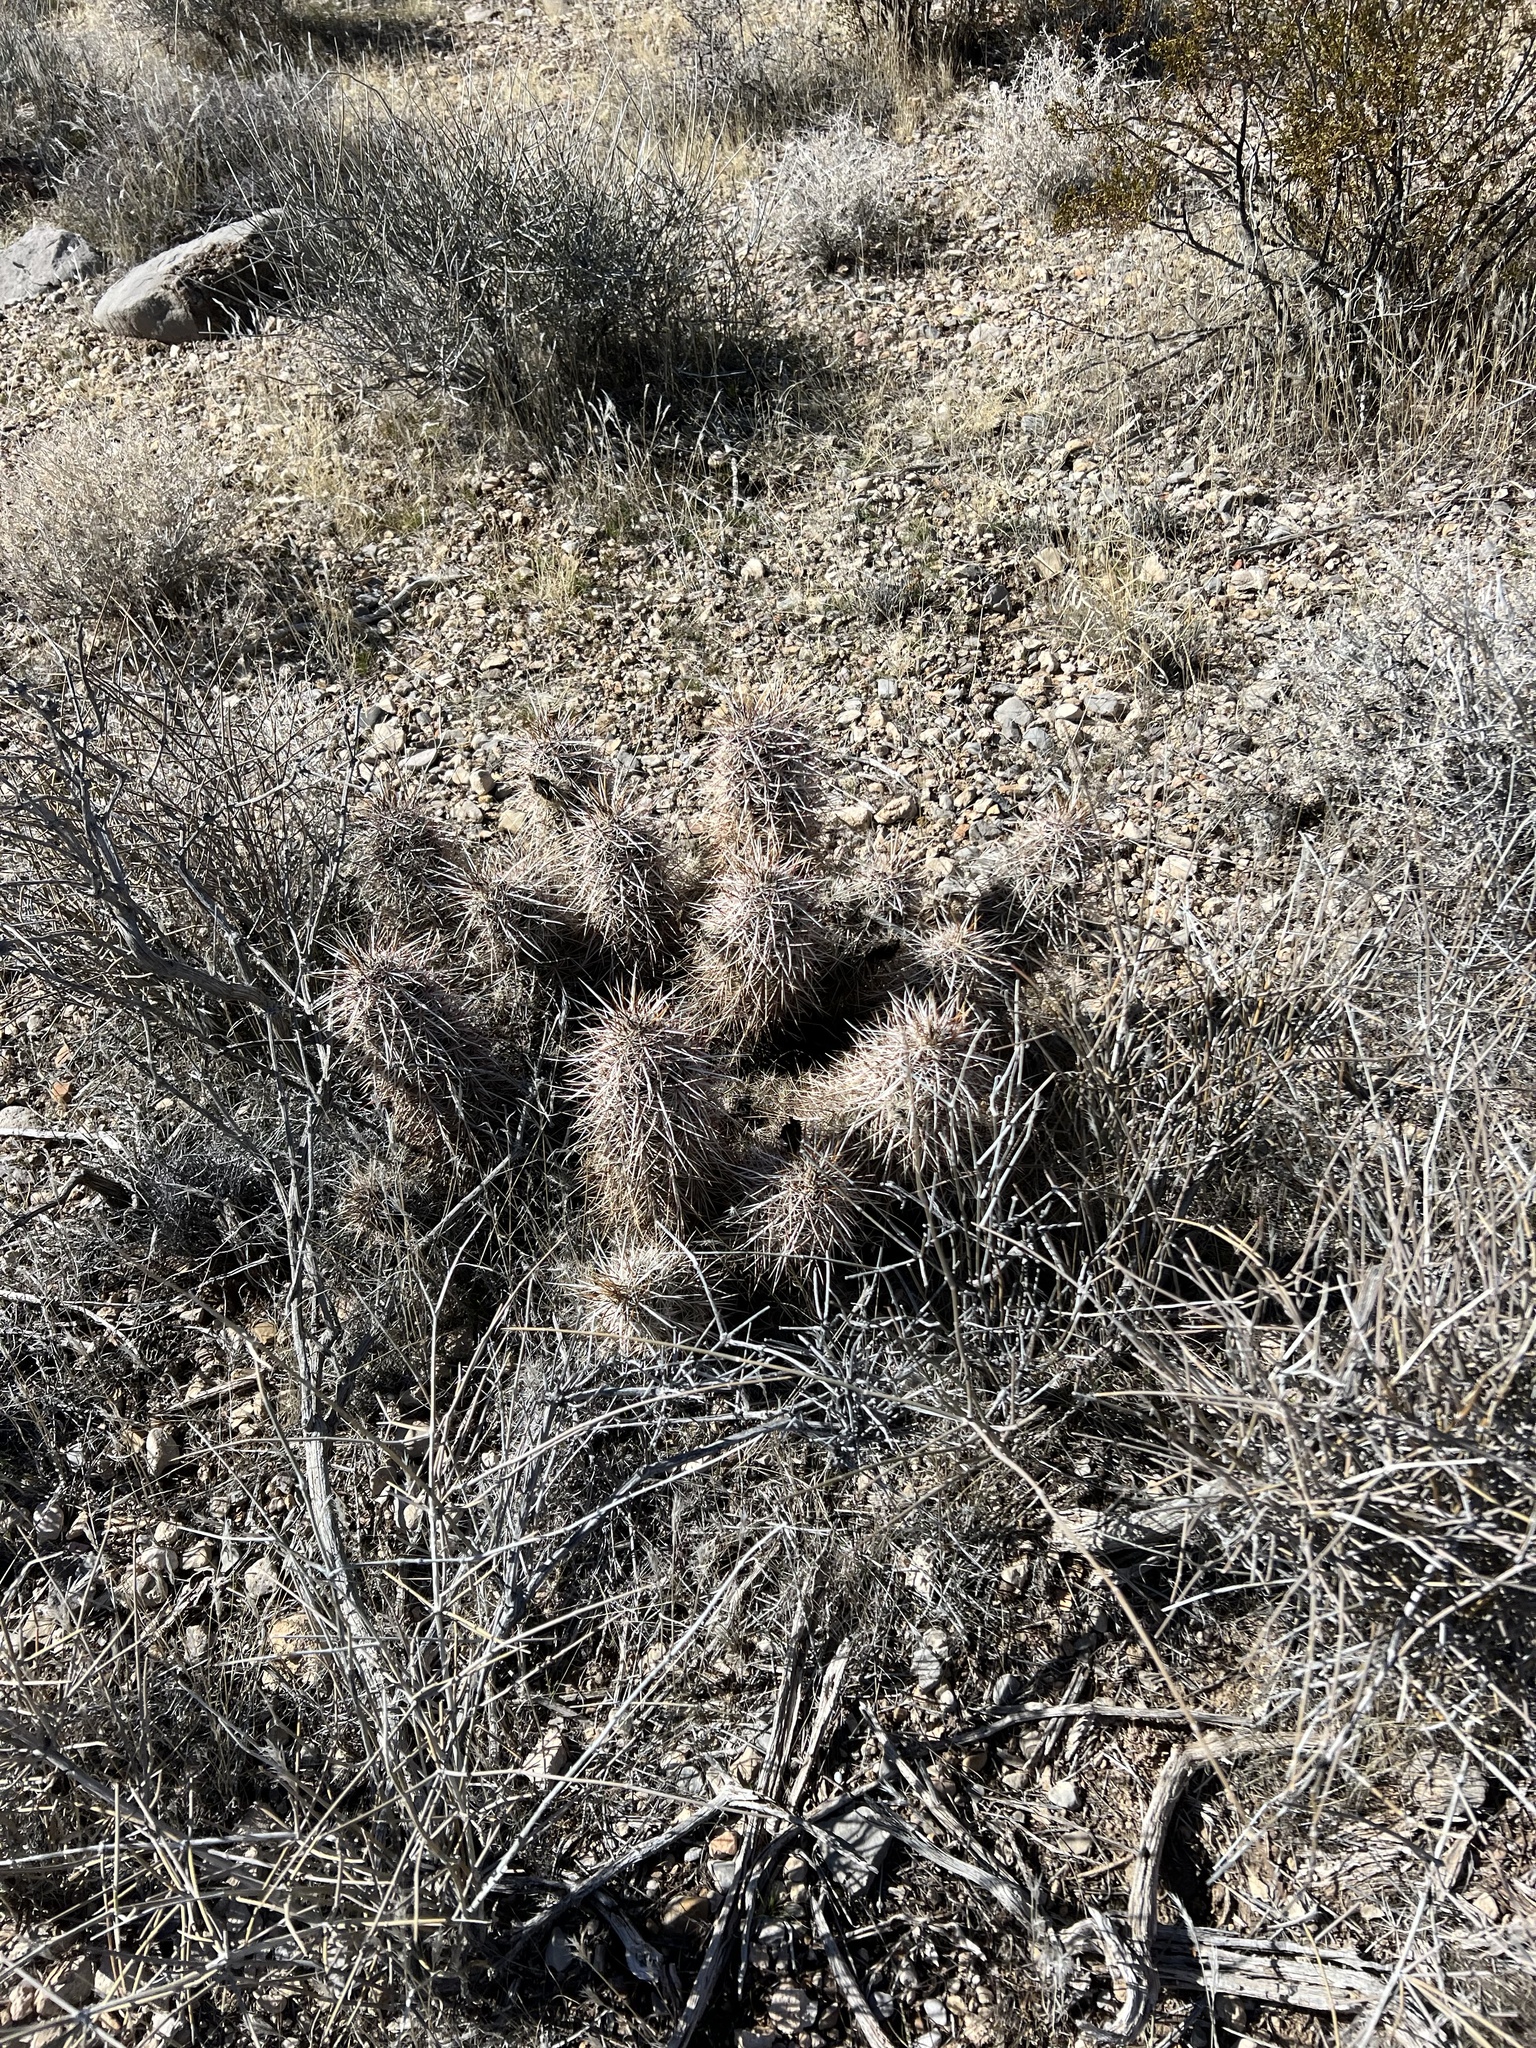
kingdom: Plantae
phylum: Tracheophyta
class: Magnoliopsida
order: Caryophyllales
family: Cactaceae
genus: Echinocereus
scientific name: Echinocereus engelmannii
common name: Engelmann's hedgehog cactus
